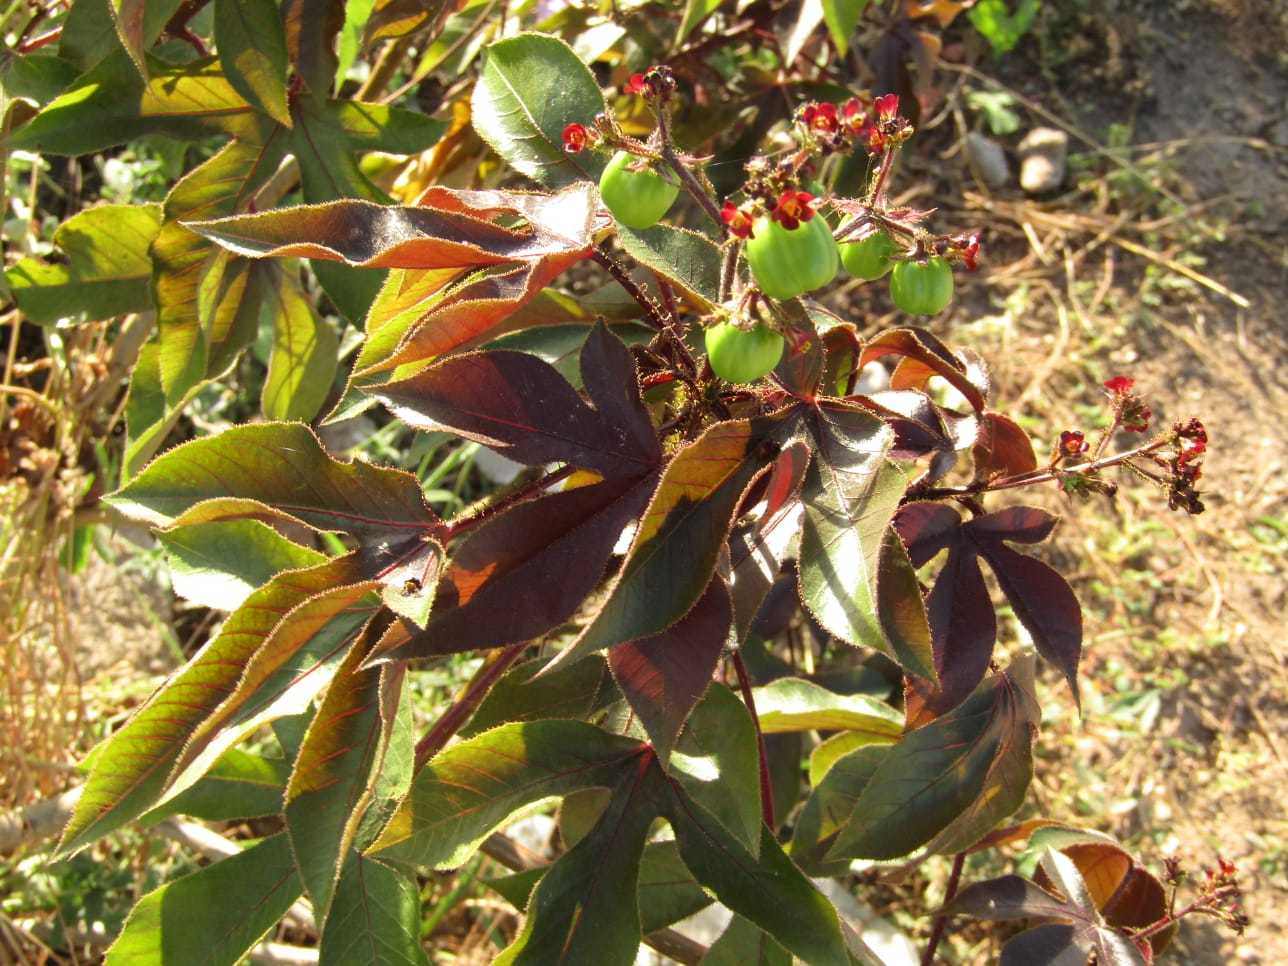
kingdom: Plantae
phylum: Tracheophyta
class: Magnoliopsida
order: Malpighiales
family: Euphorbiaceae
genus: Jatropha
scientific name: Jatropha gossypiifolia
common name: Bellyache bush
